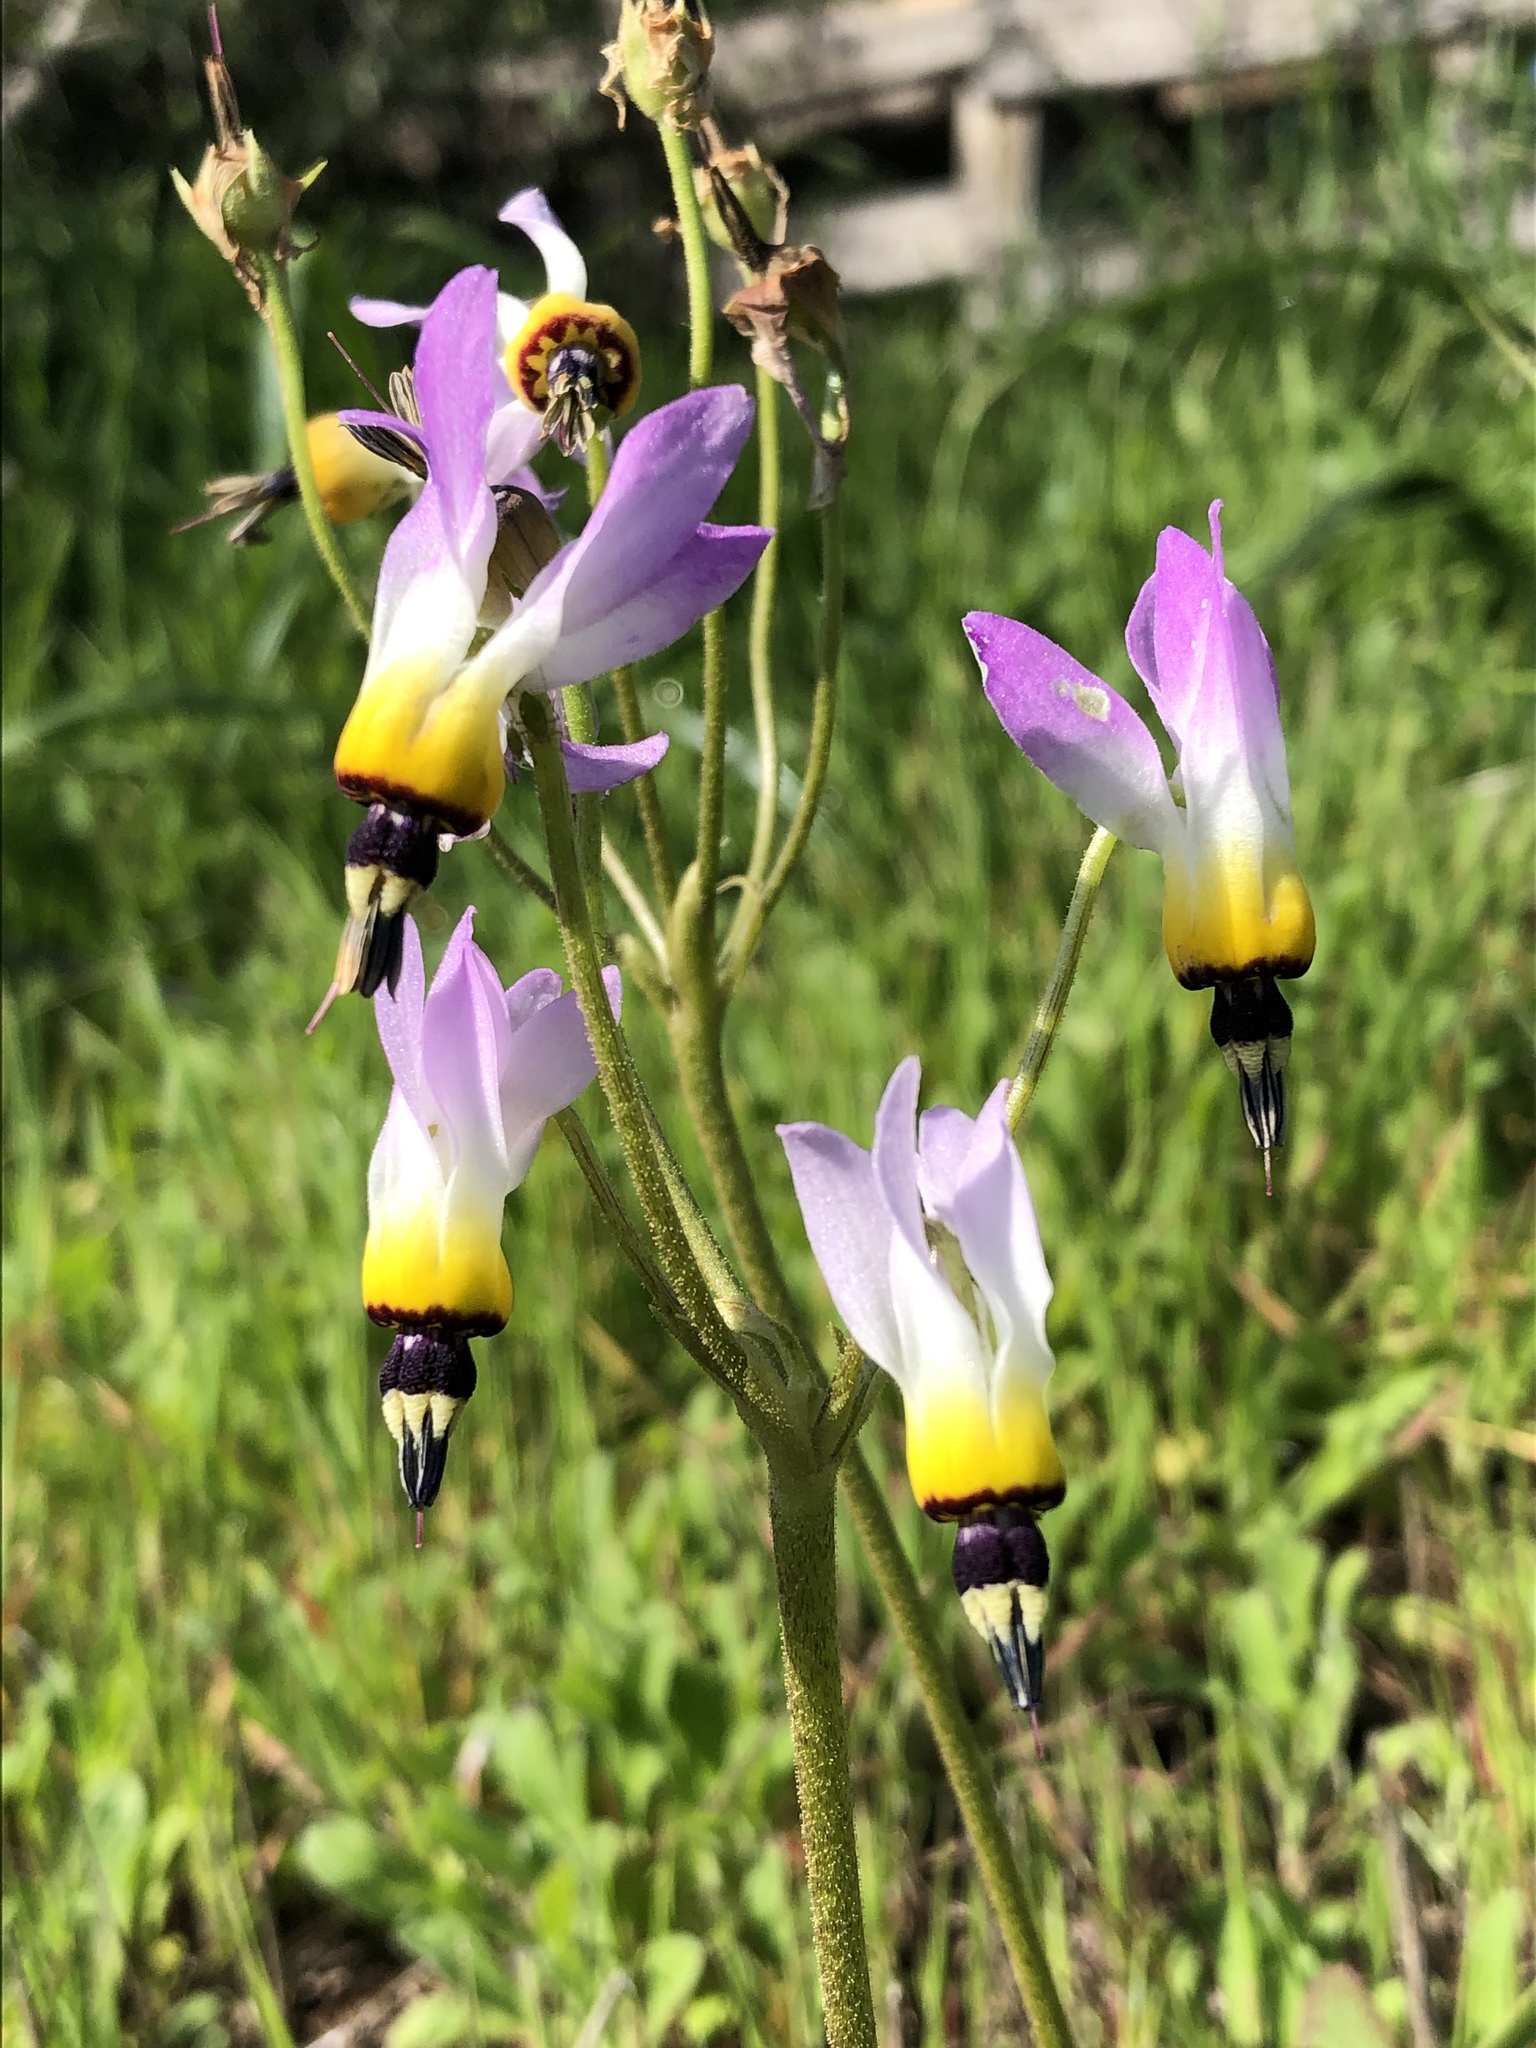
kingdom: Plantae
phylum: Tracheophyta
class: Magnoliopsida
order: Ericales
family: Primulaceae
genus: Dodecatheon
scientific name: Dodecatheon clevelandii
